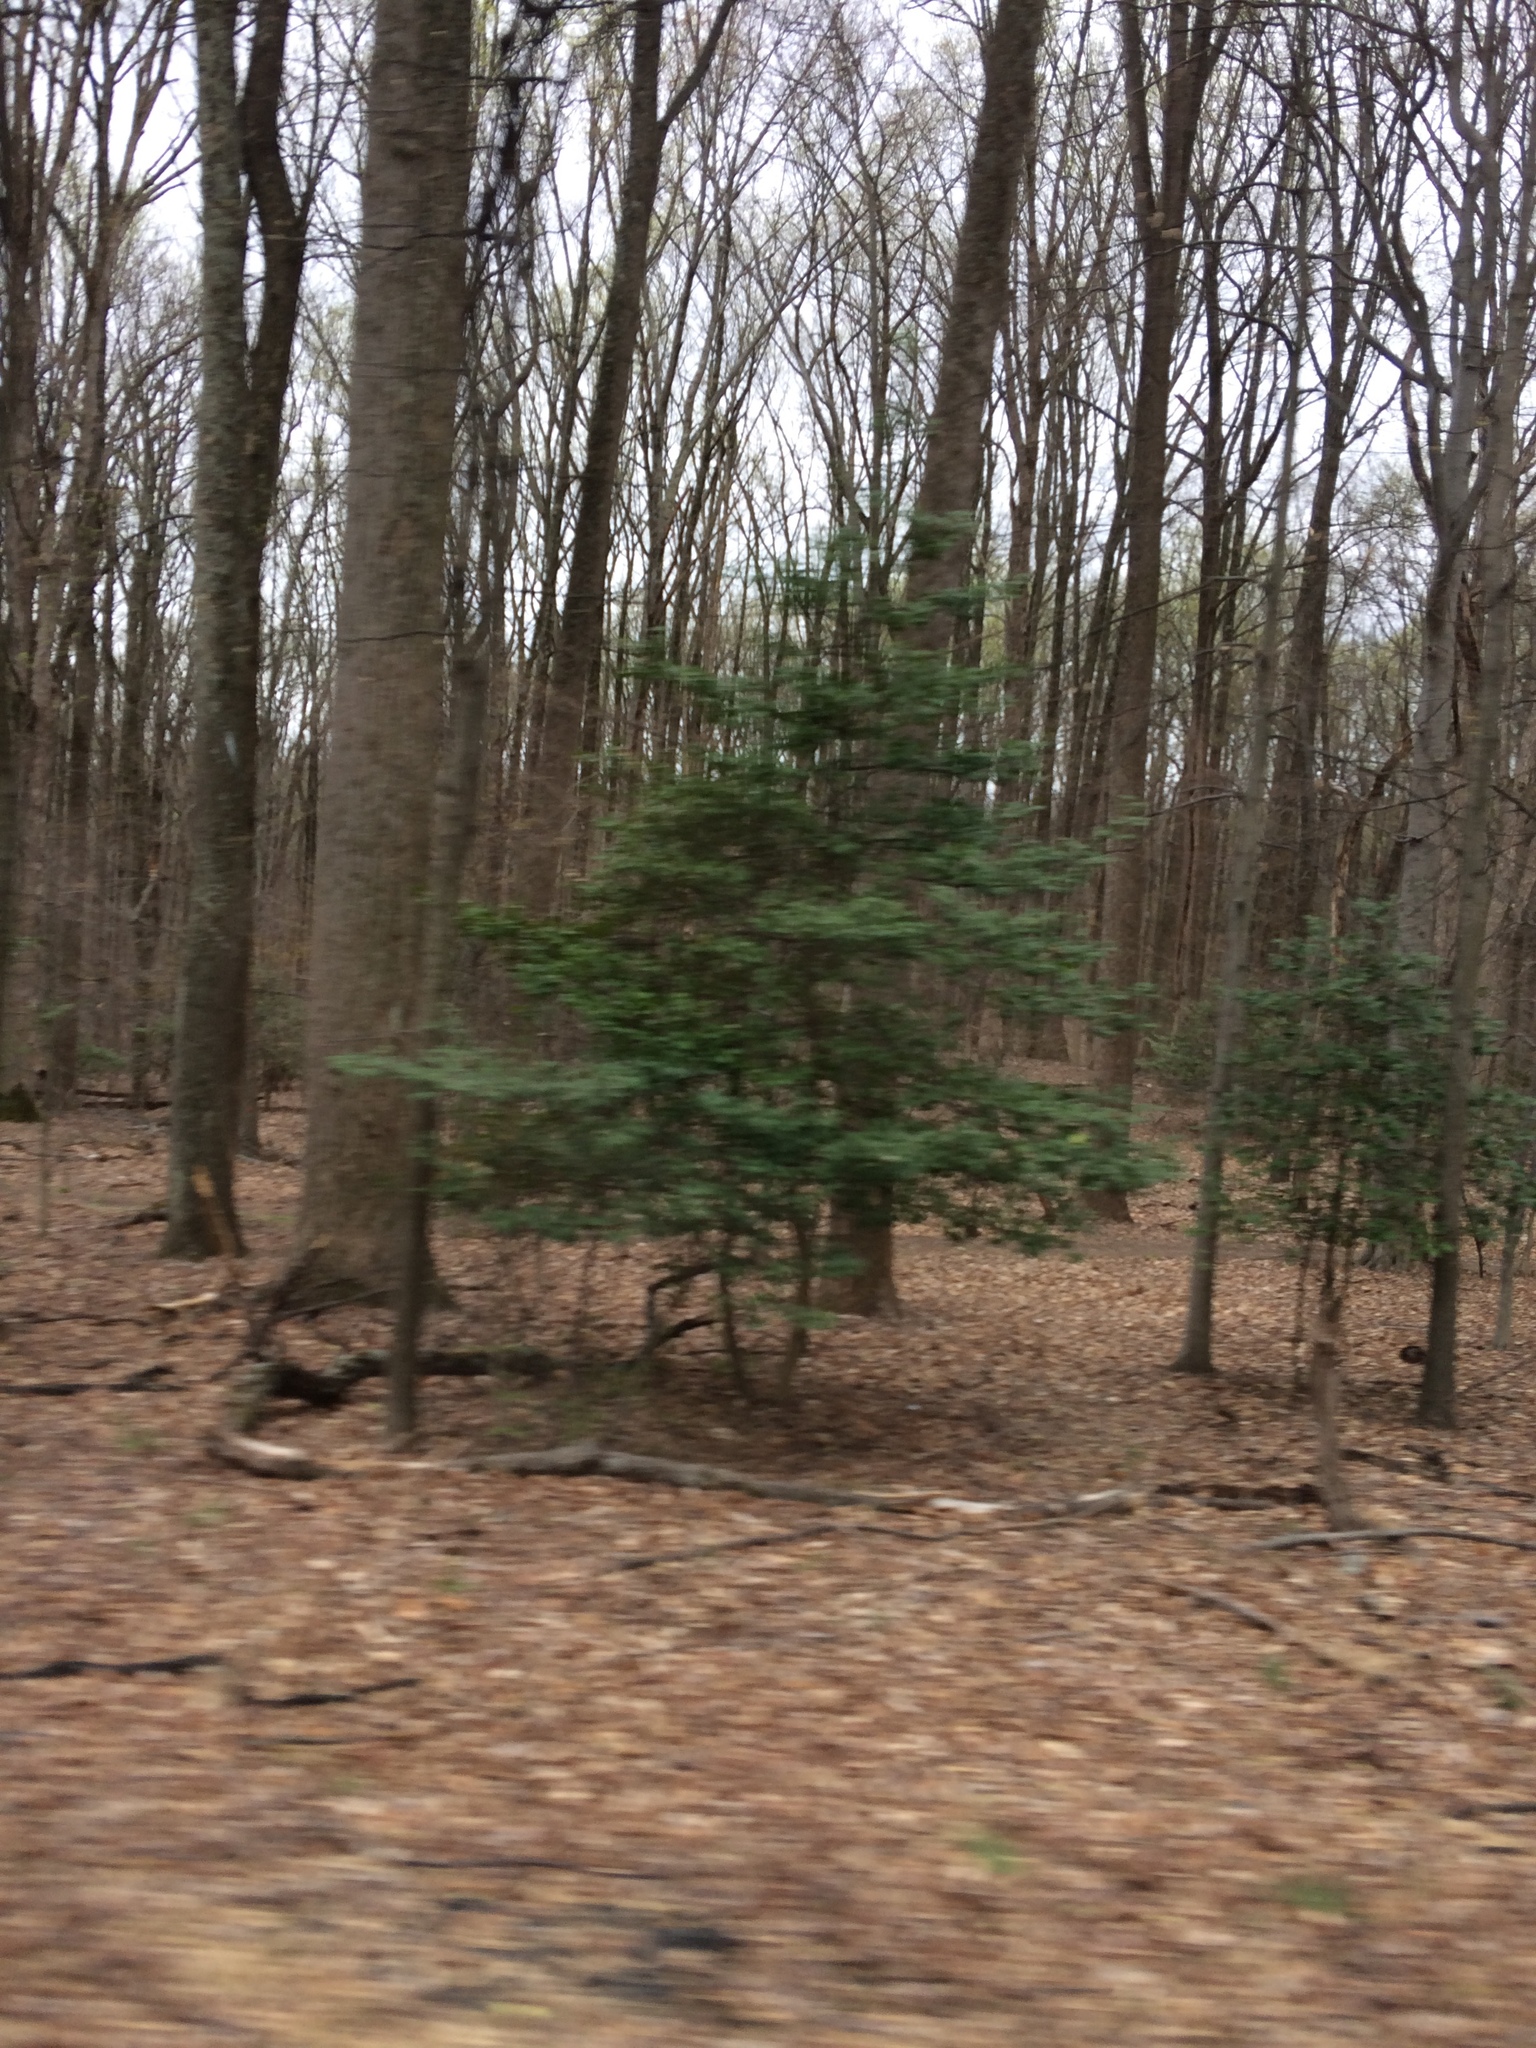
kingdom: Plantae
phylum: Tracheophyta
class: Magnoliopsida
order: Aquifoliales
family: Aquifoliaceae
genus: Ilex
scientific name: Ilex opaca
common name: American holly
